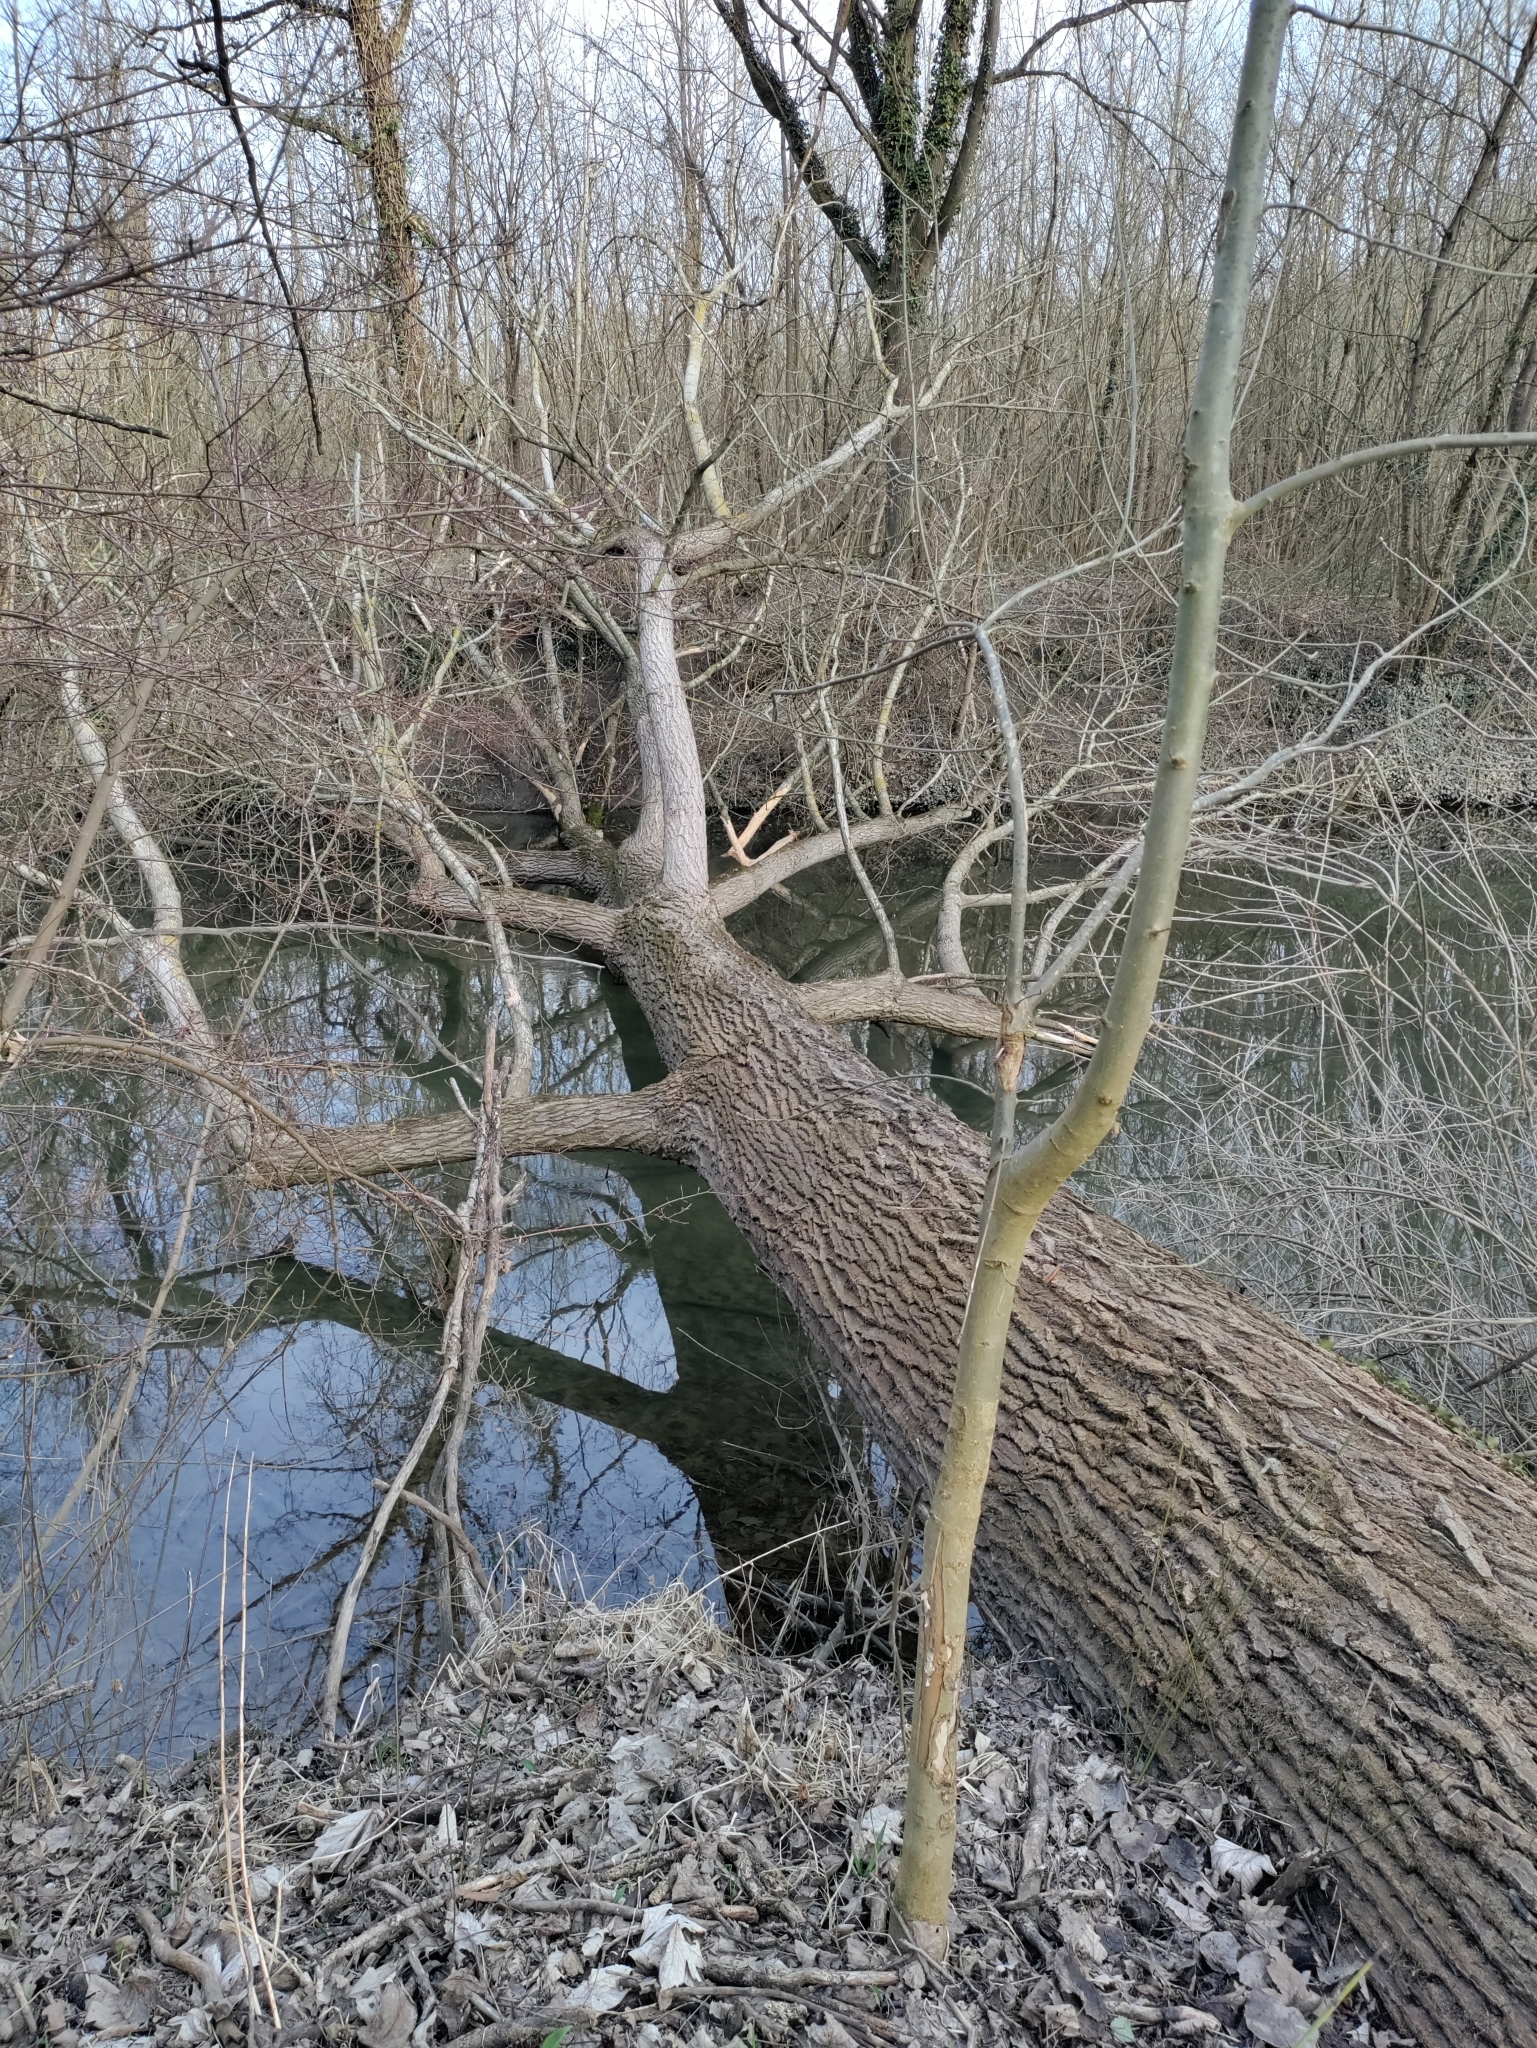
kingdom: Animalia
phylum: Chordata
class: Mammalia
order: Rodentia
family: Castoridae
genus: Castor
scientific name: Castor fiber
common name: Eurasian beaver
